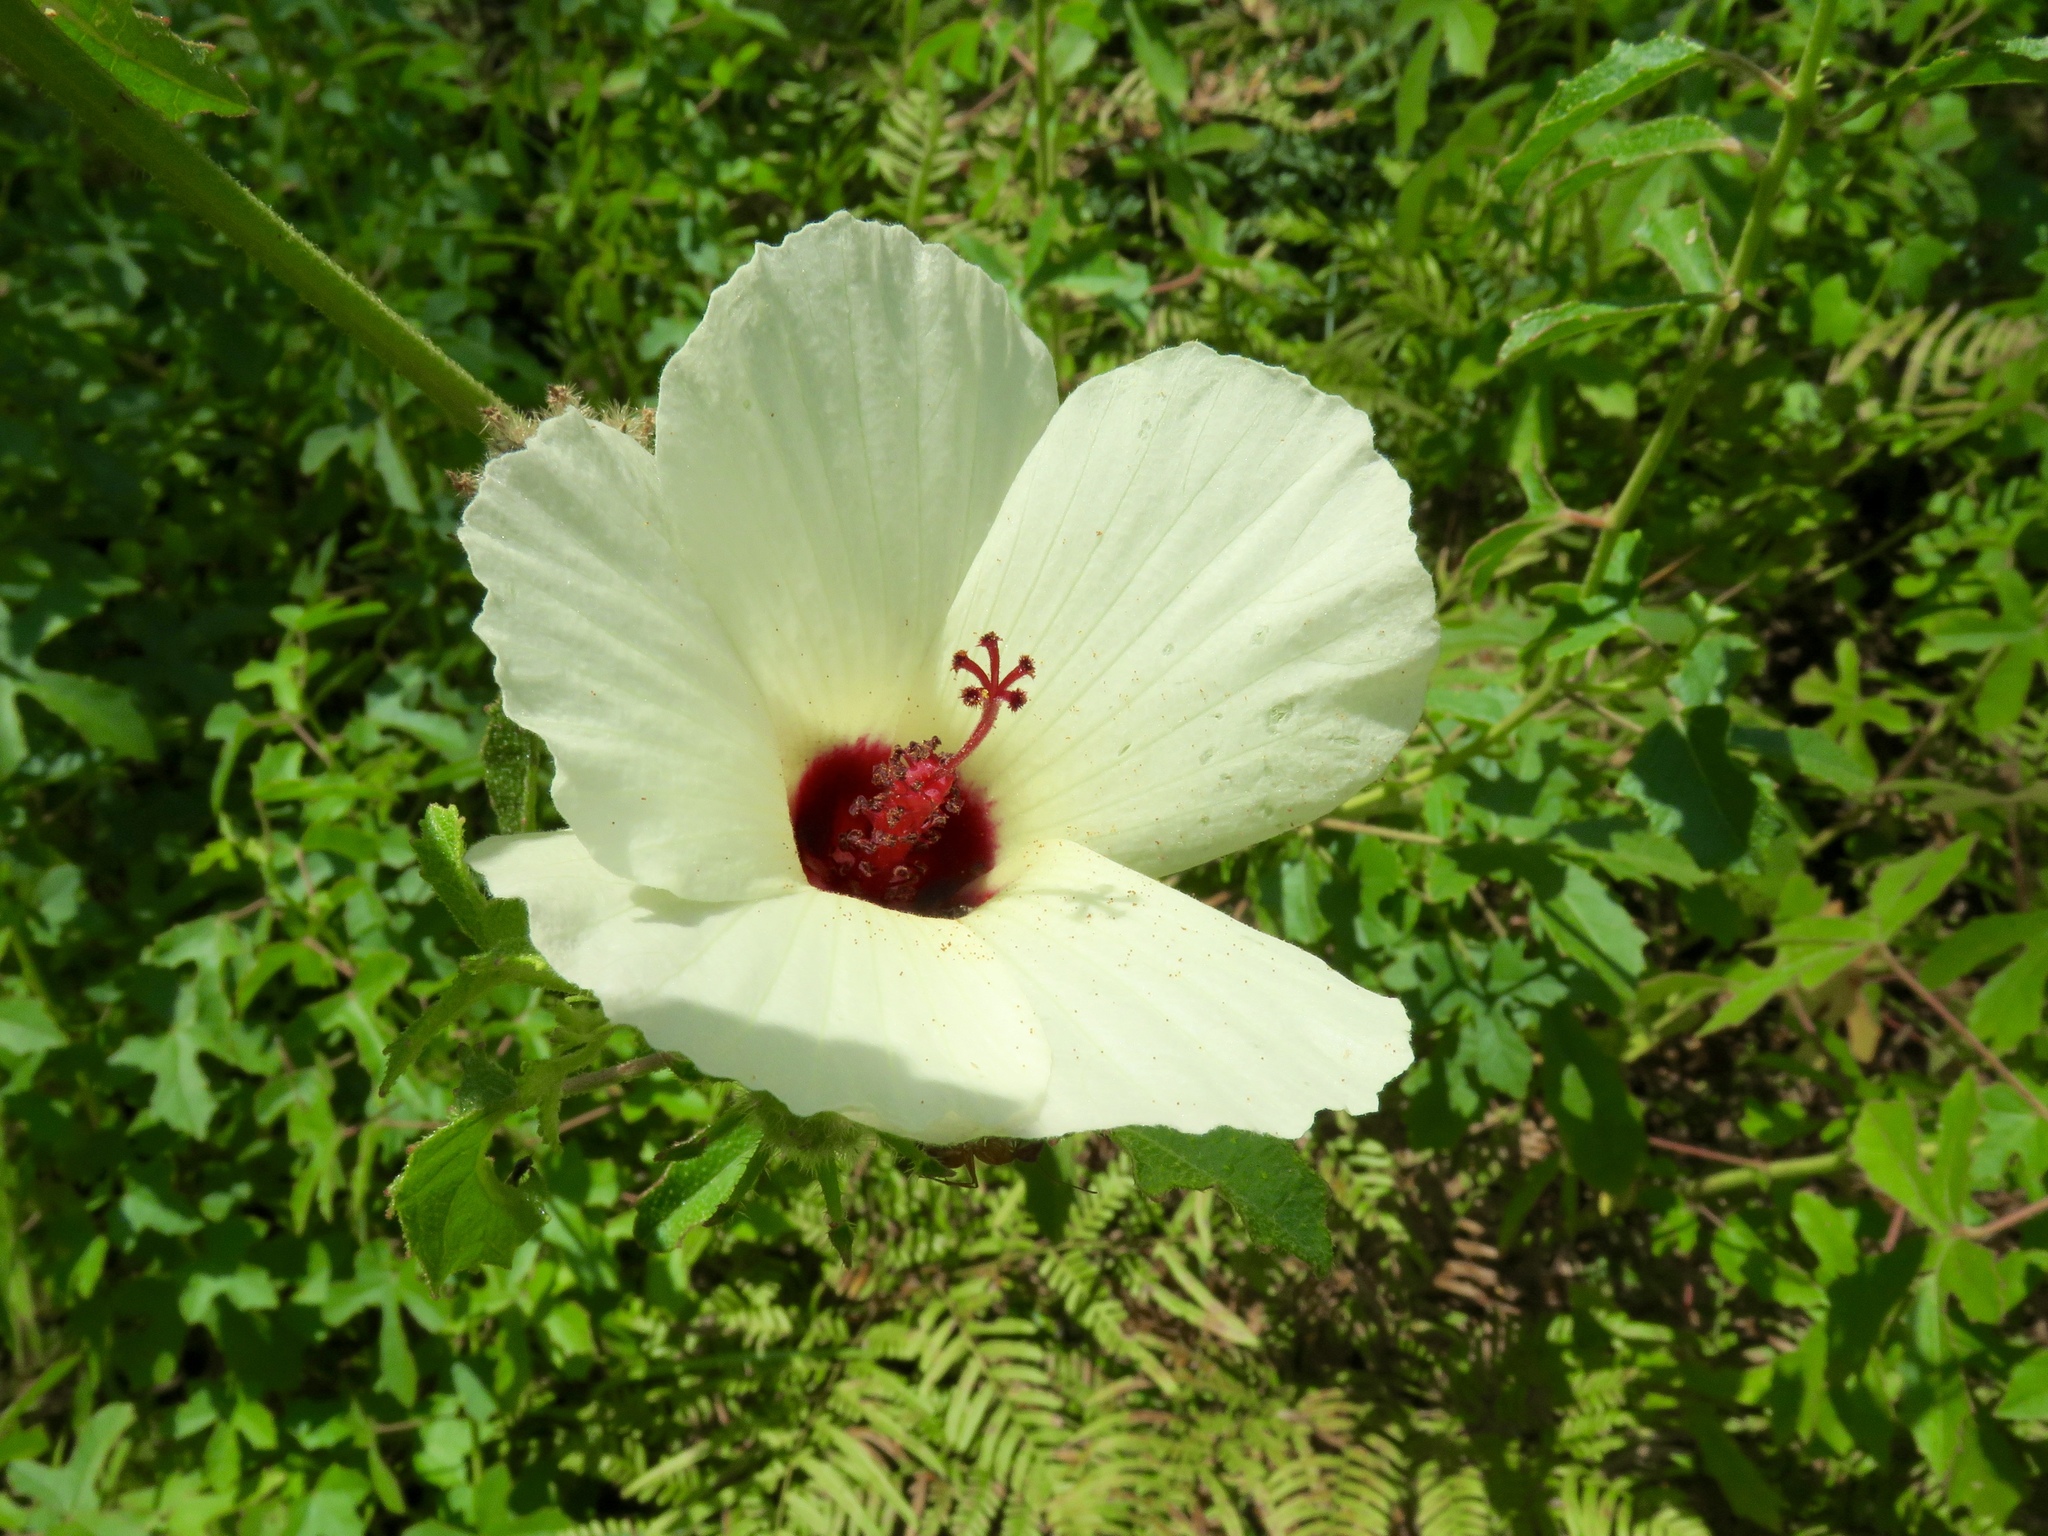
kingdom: Plantae
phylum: Tracheophyta
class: Magnoliopsida
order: Malvales
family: Malvaceae
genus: Hibiscus
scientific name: Hibiscus aculeatus
